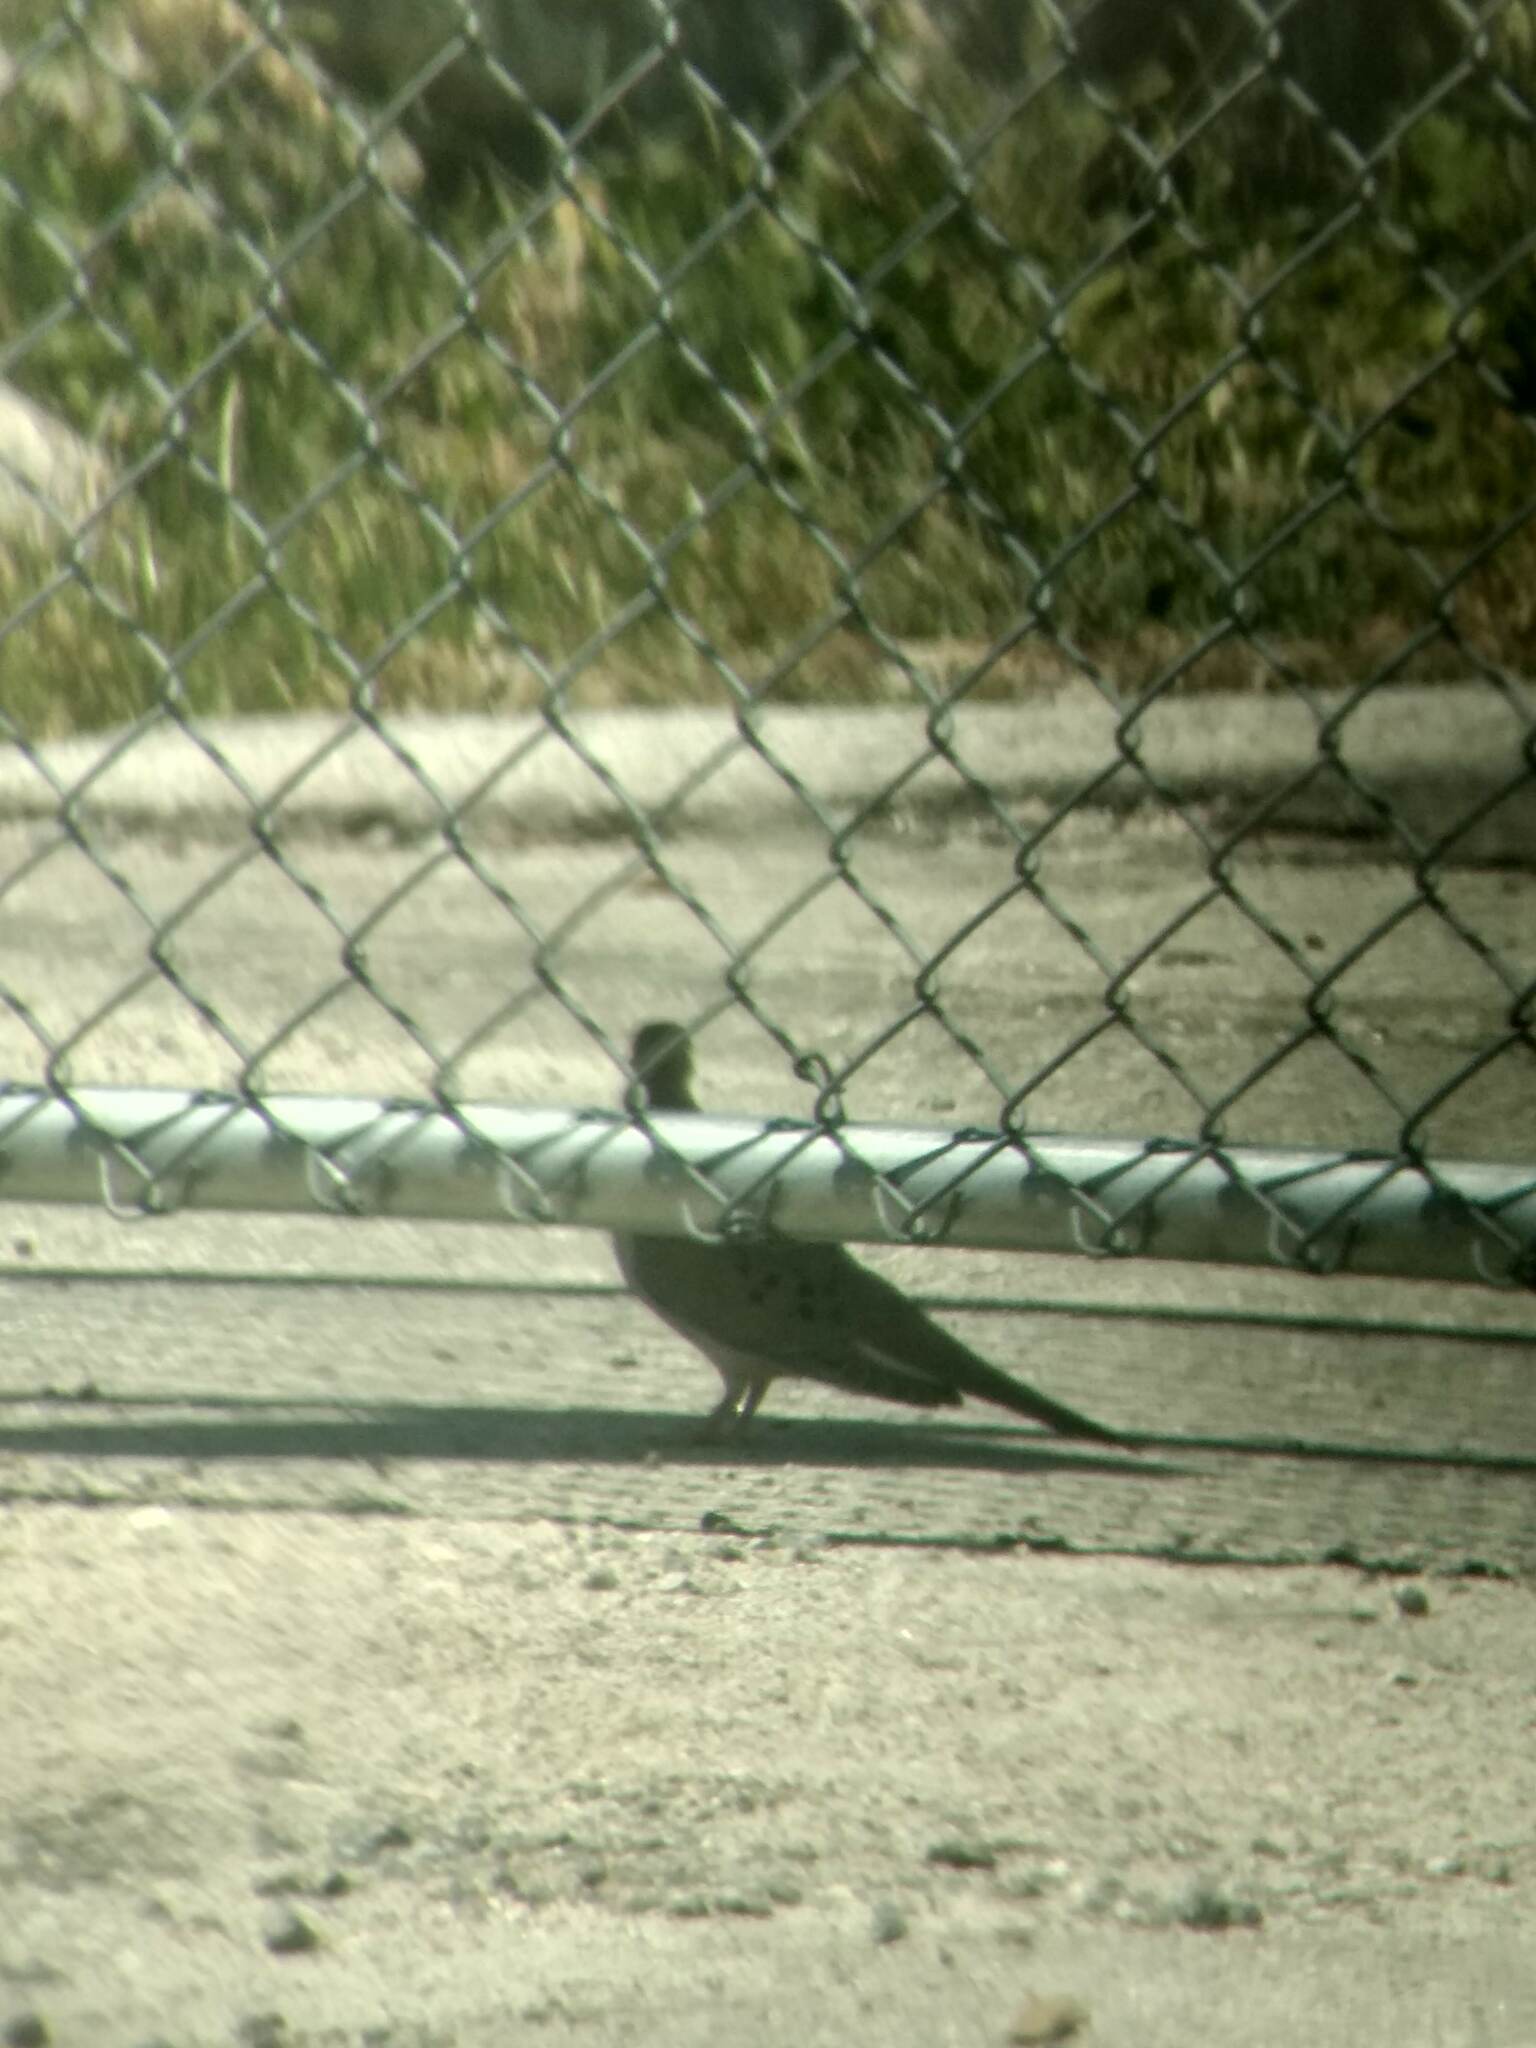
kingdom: Animalia
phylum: Chordata
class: Aves
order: Columbiformes
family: Columbidae
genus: Zenaida
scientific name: Zenaida macroura
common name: Mourning dove
